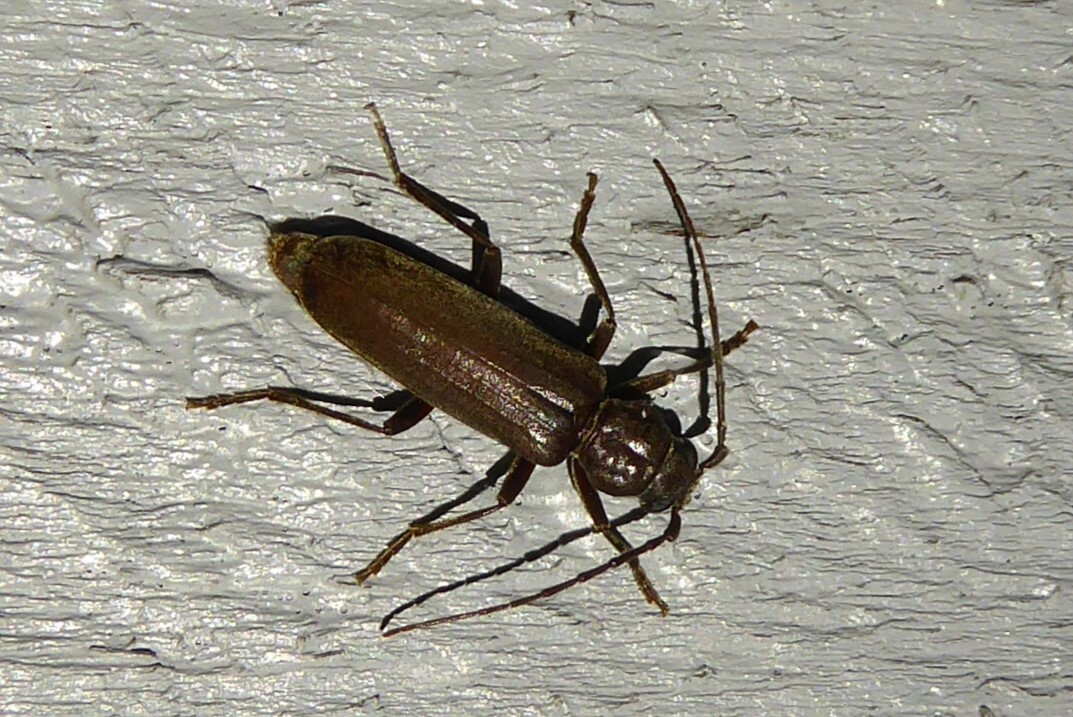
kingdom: Animalia
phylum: Arthropoda
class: Insecta
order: Coleoptera
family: Cerambycidae
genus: Arhopalus
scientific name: Arhopalus ferus
